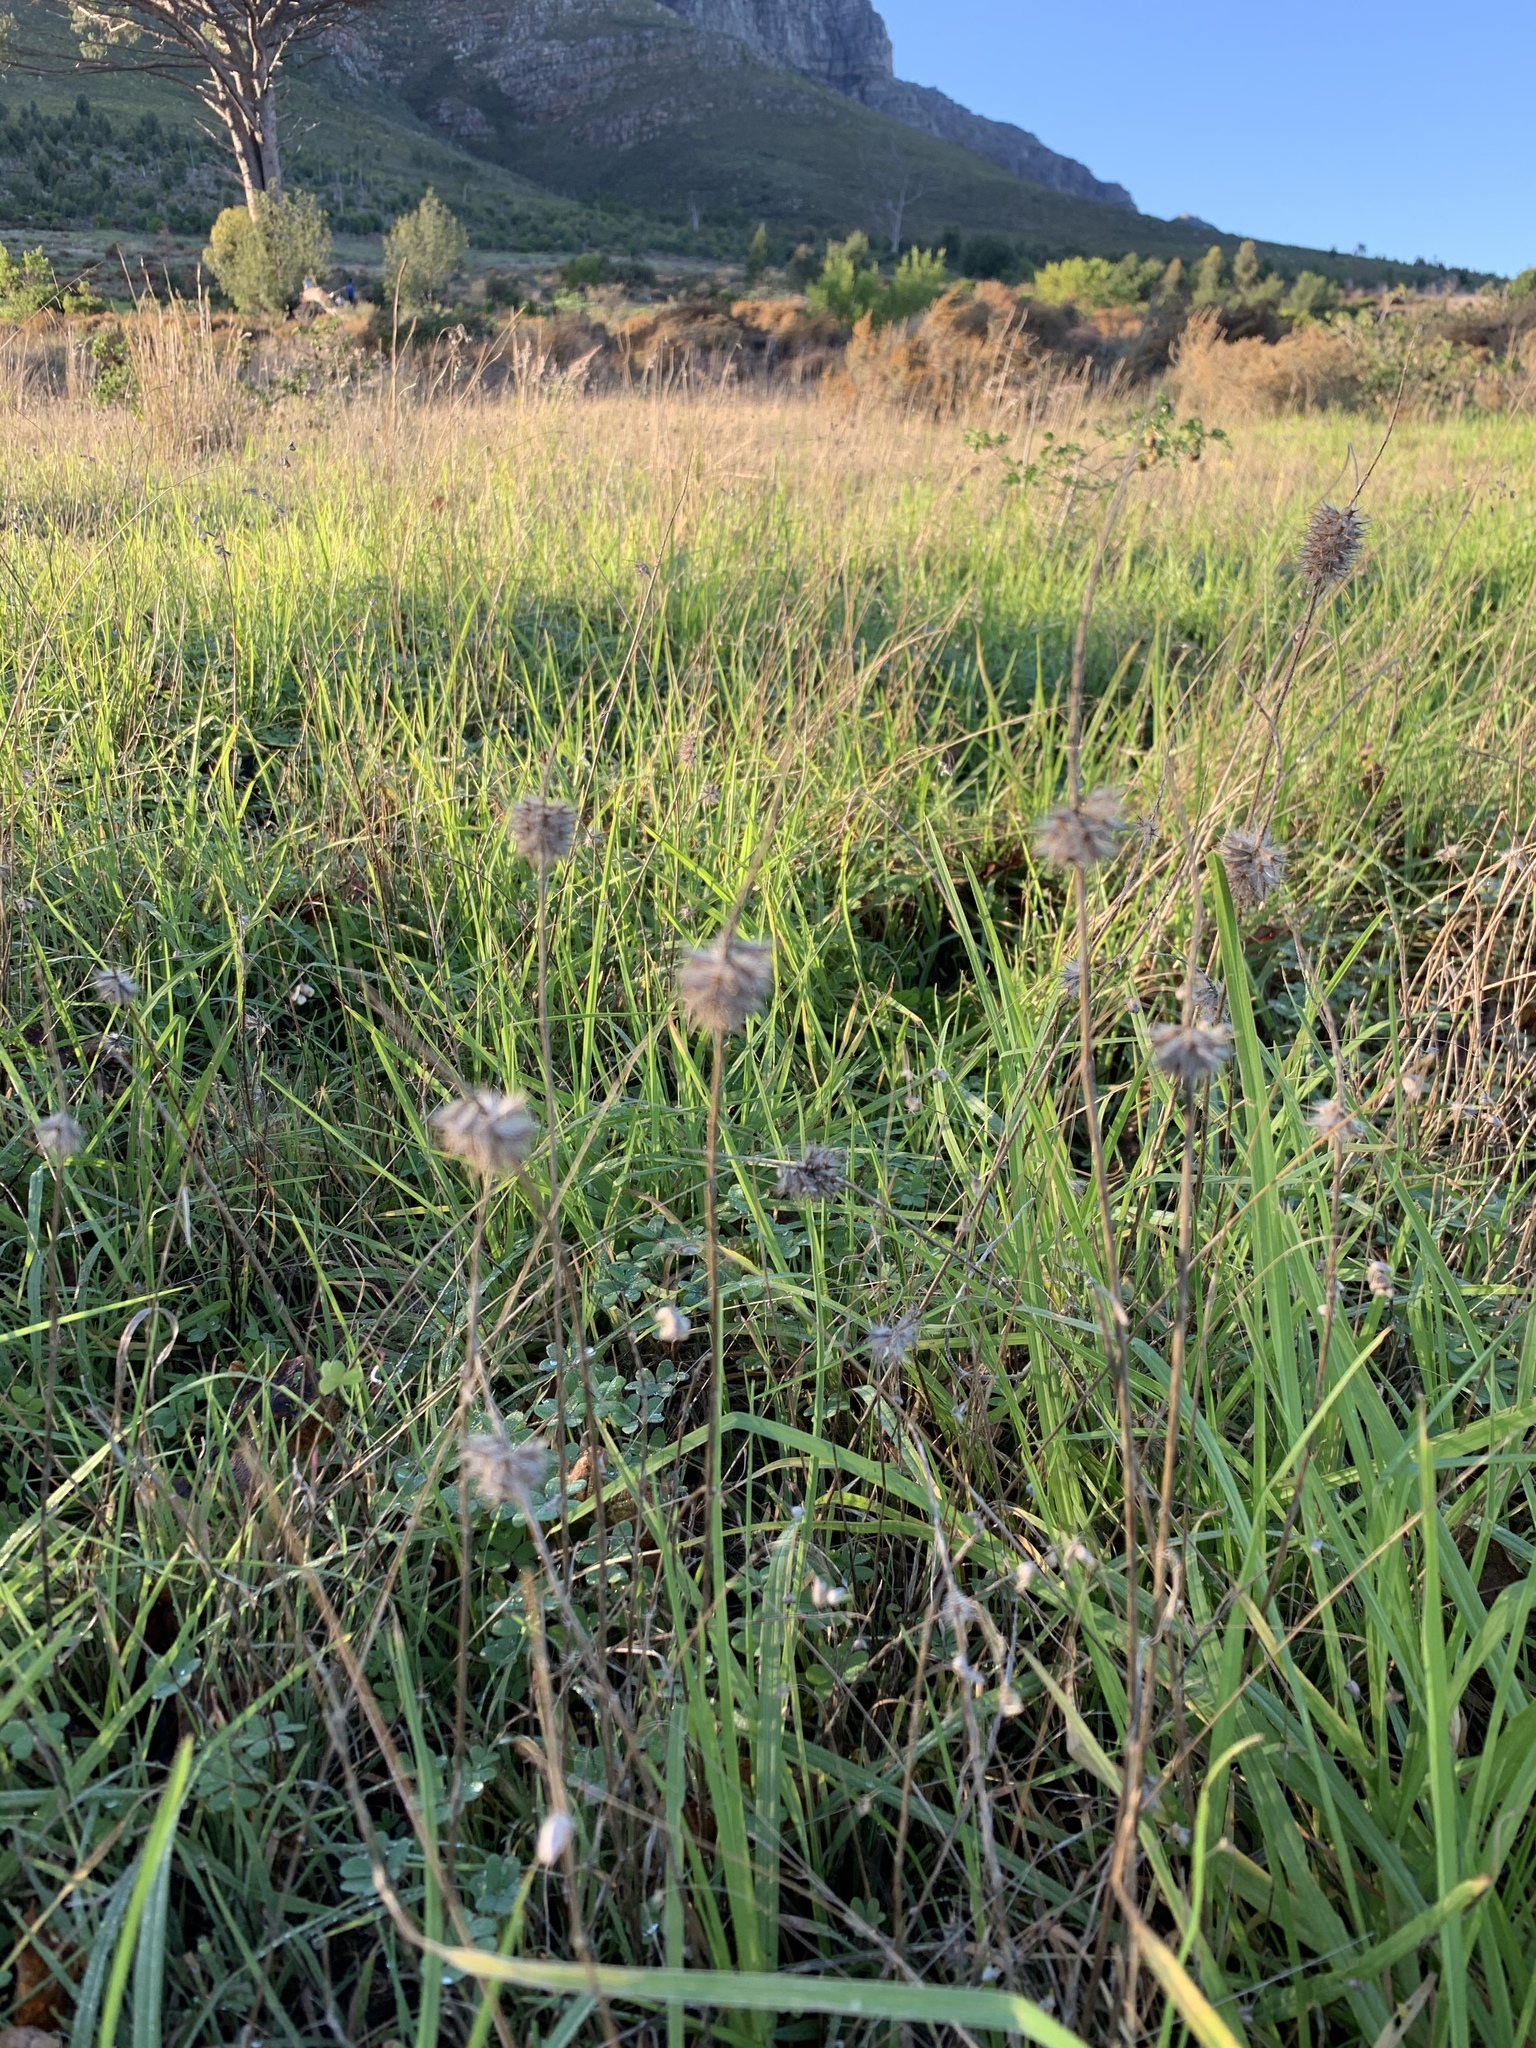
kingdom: Plantae
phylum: Tracheophyta
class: Magnoliopsida
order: Fabales
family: Fabaceae
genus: Trifolium
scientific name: Trifolium angustifolium
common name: Narrow clover
